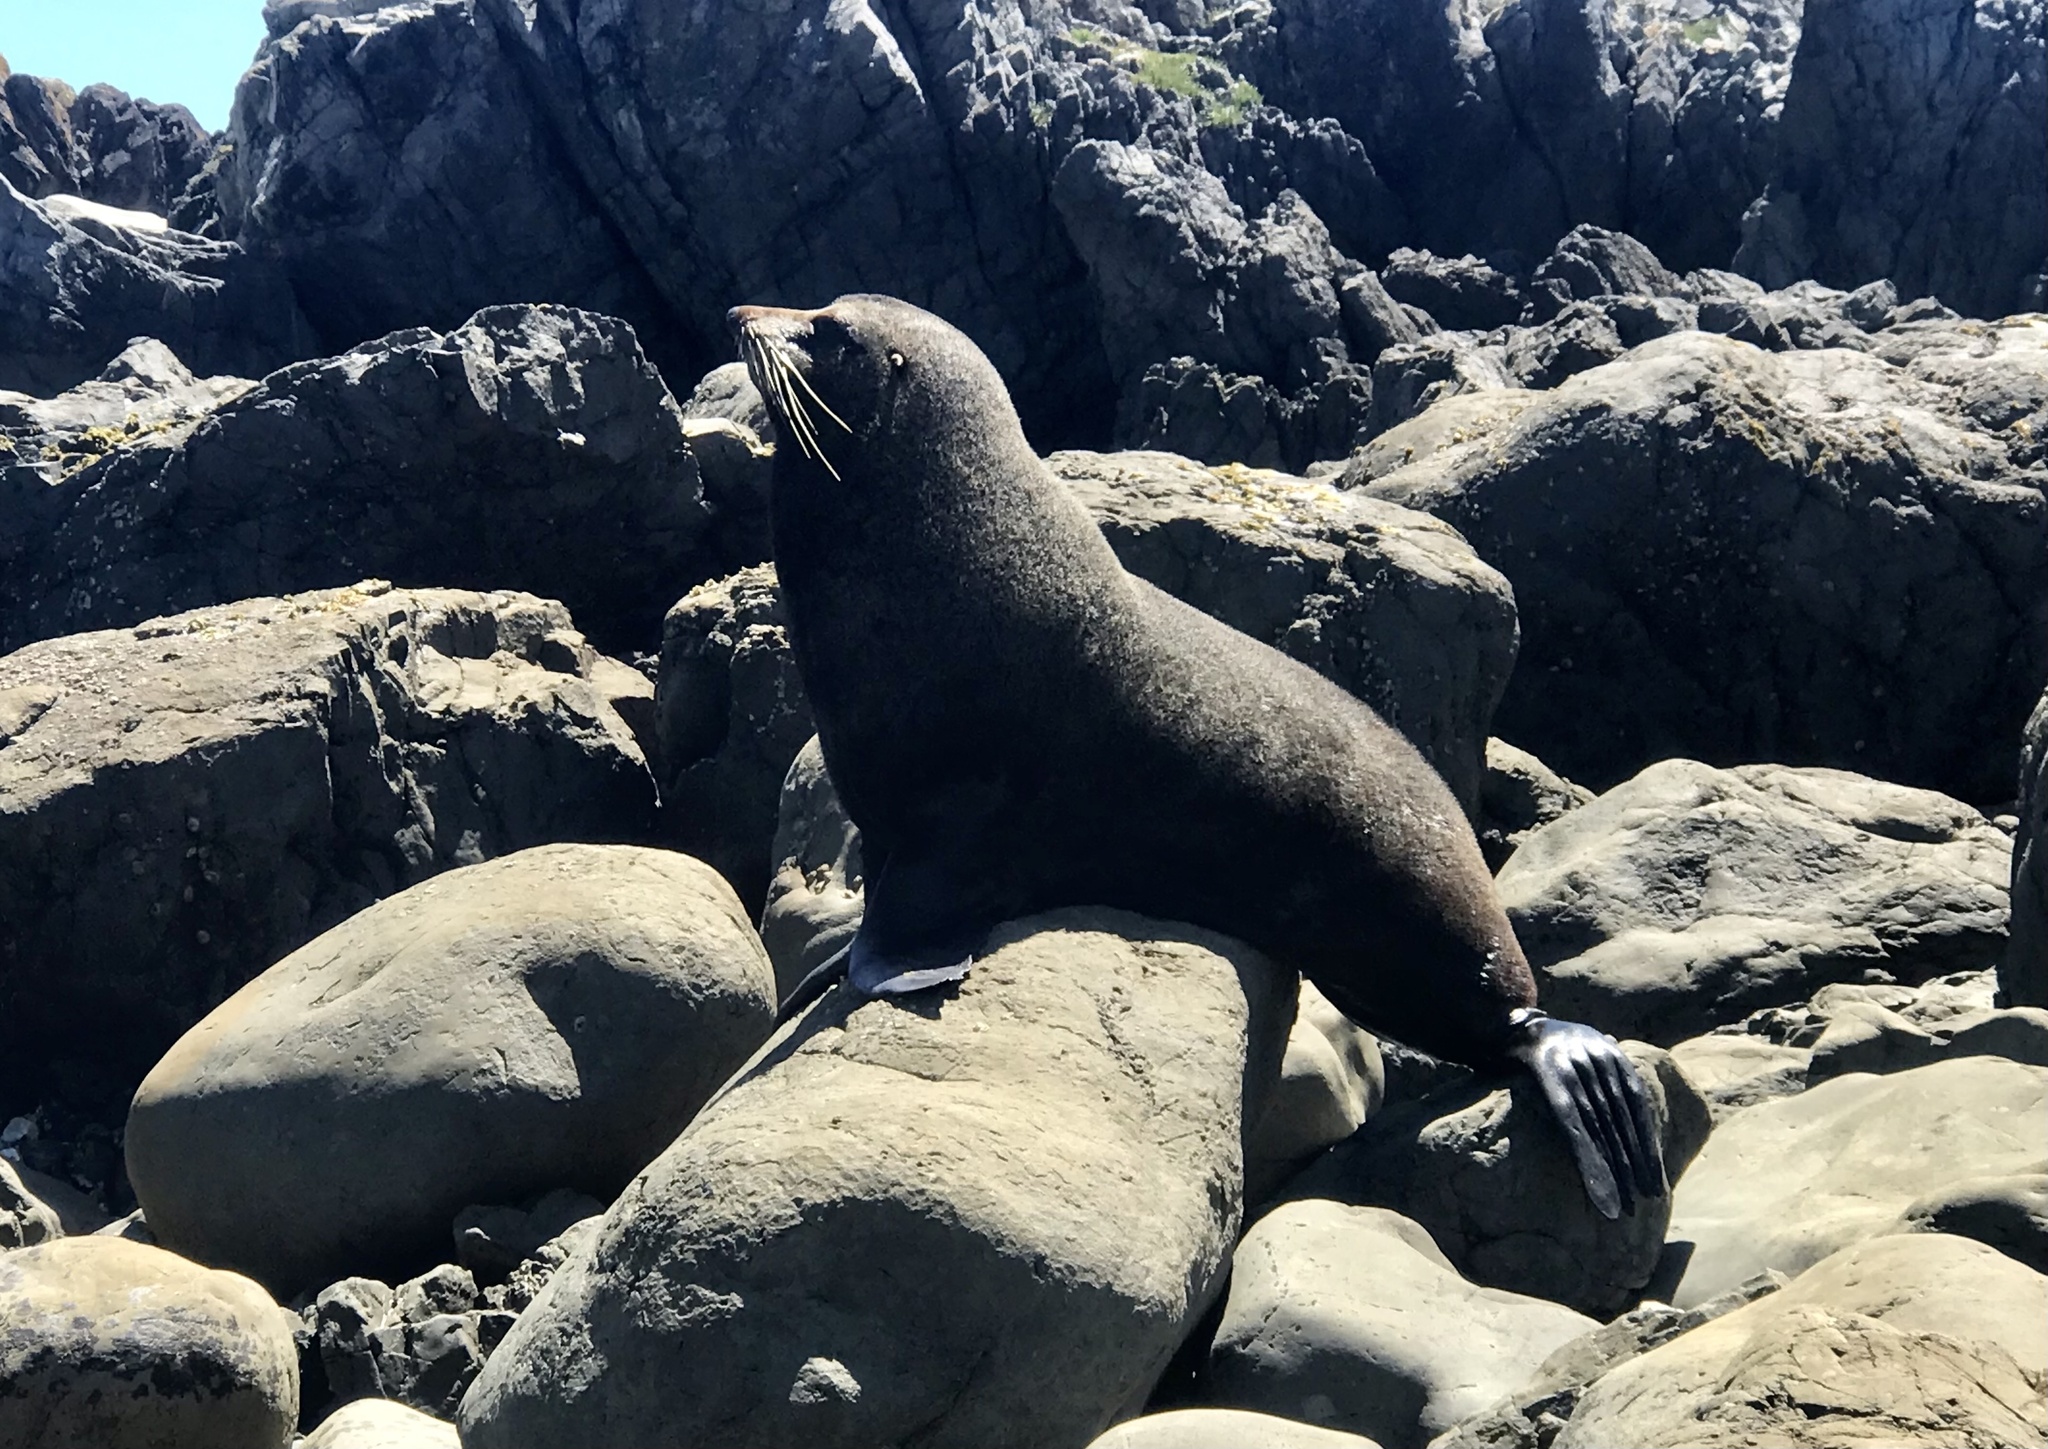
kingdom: Animalia
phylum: Chordata
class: Mammalia
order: Carnivora
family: Otariidae
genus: Arctocephalus
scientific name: Arctocephalus forsteri
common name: New zealand fur seal
